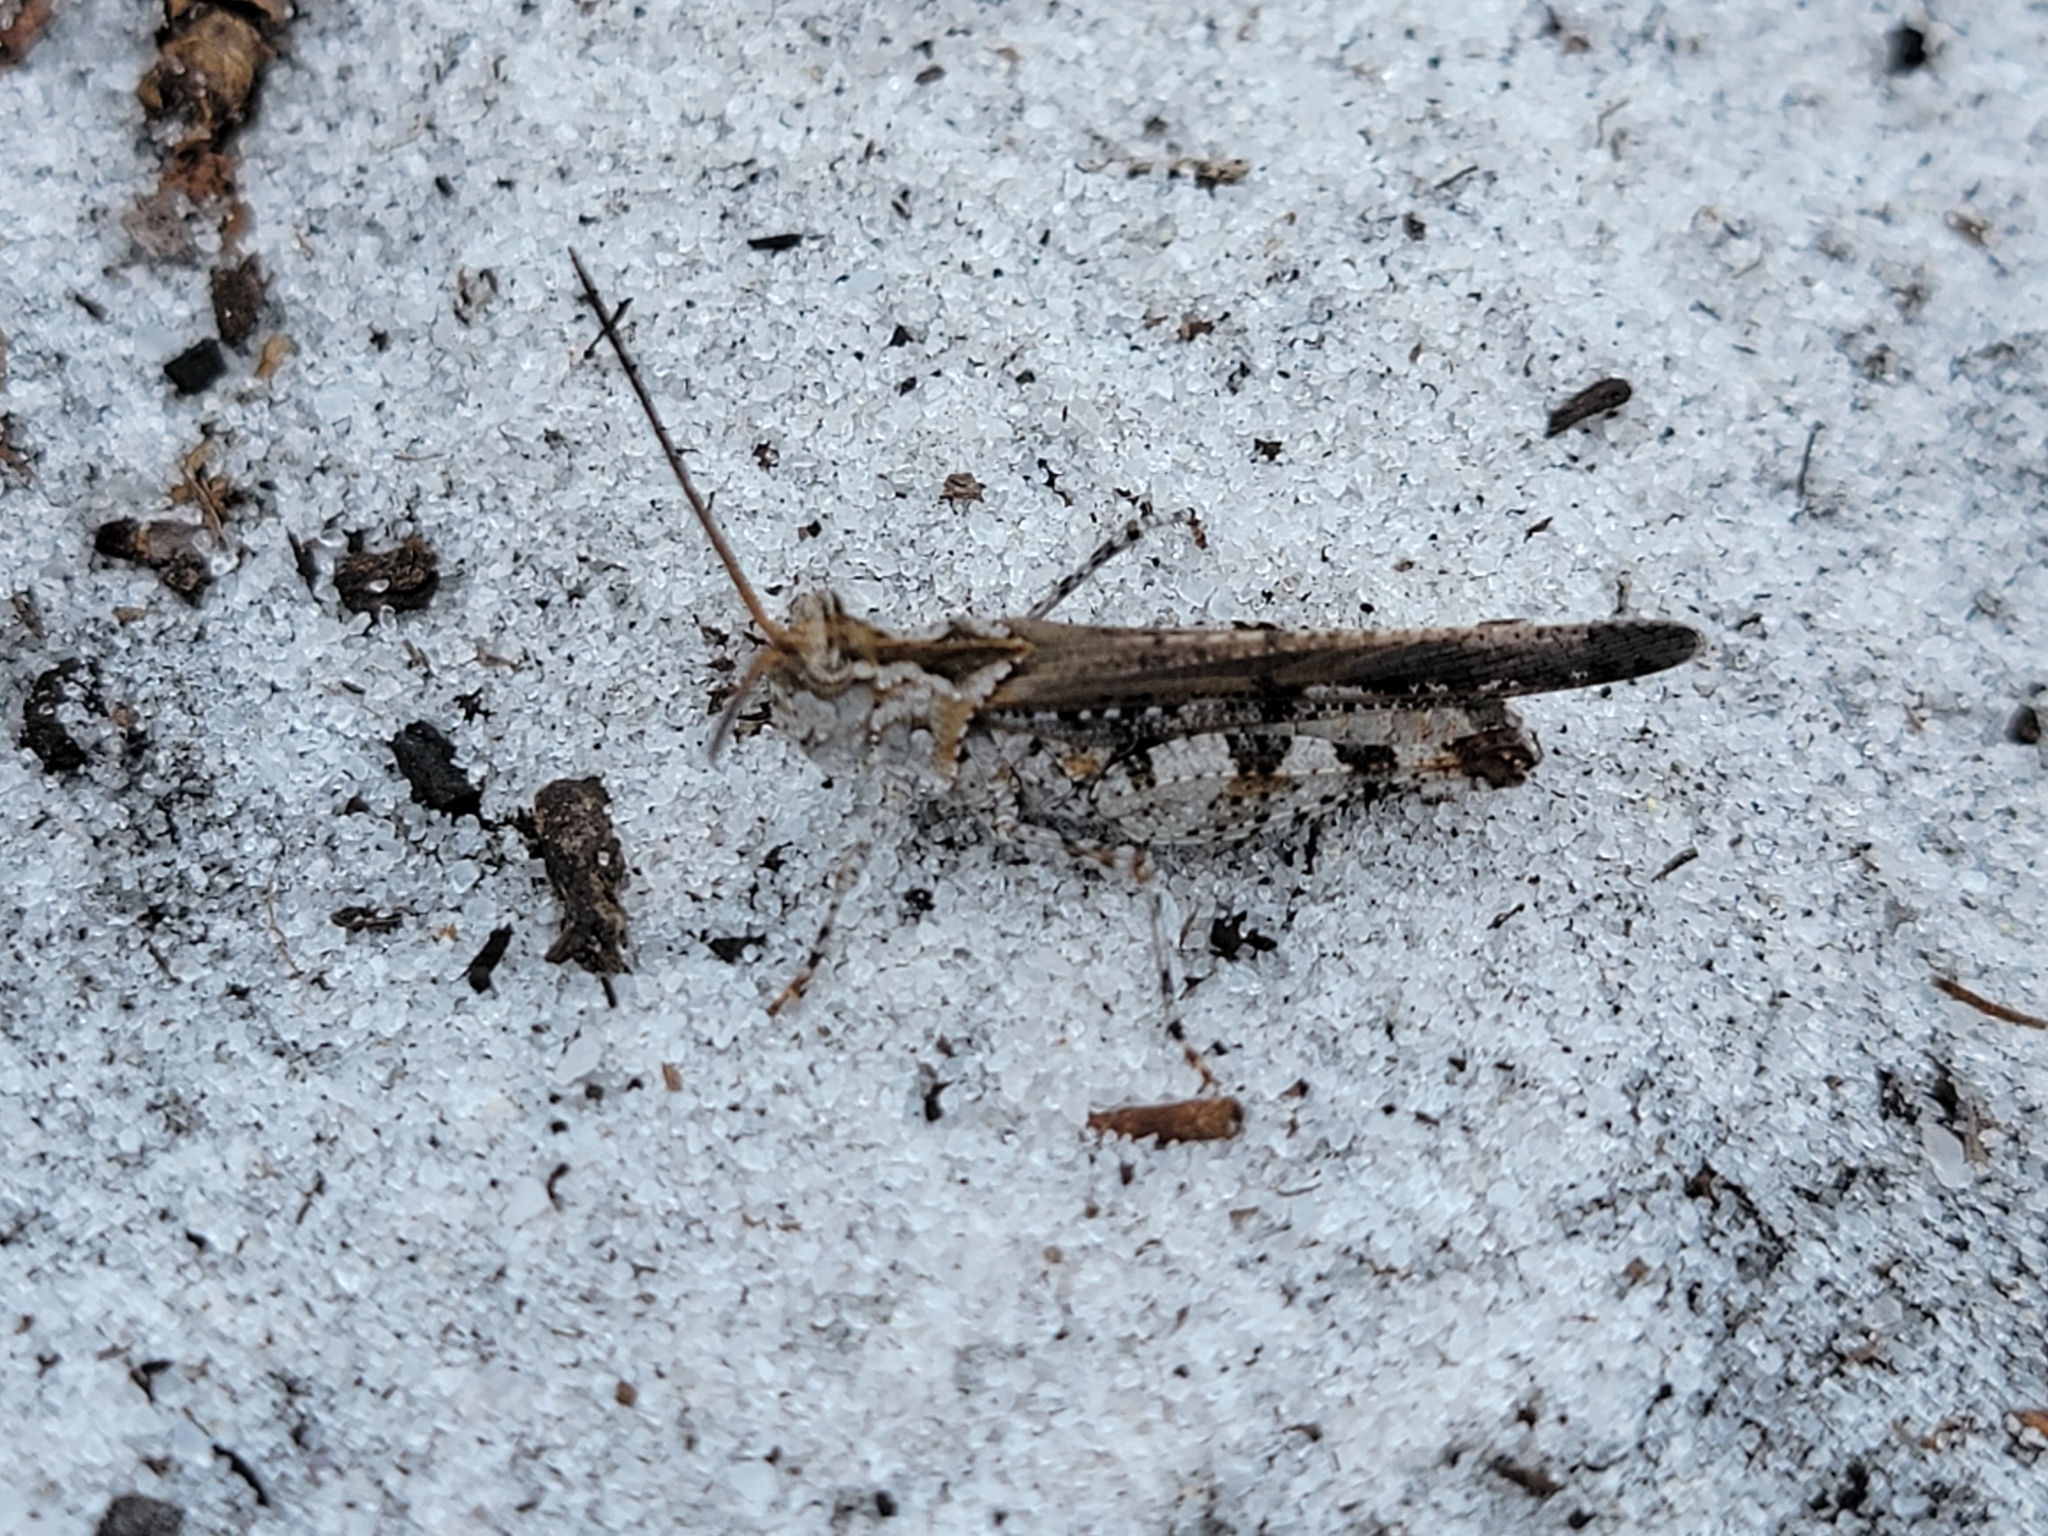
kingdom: Animalia
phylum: Arthropoda
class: Insecta
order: Orthoptera
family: Acrididae
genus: Psinidia
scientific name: Psinidia fenestralis
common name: Long-horned locust
